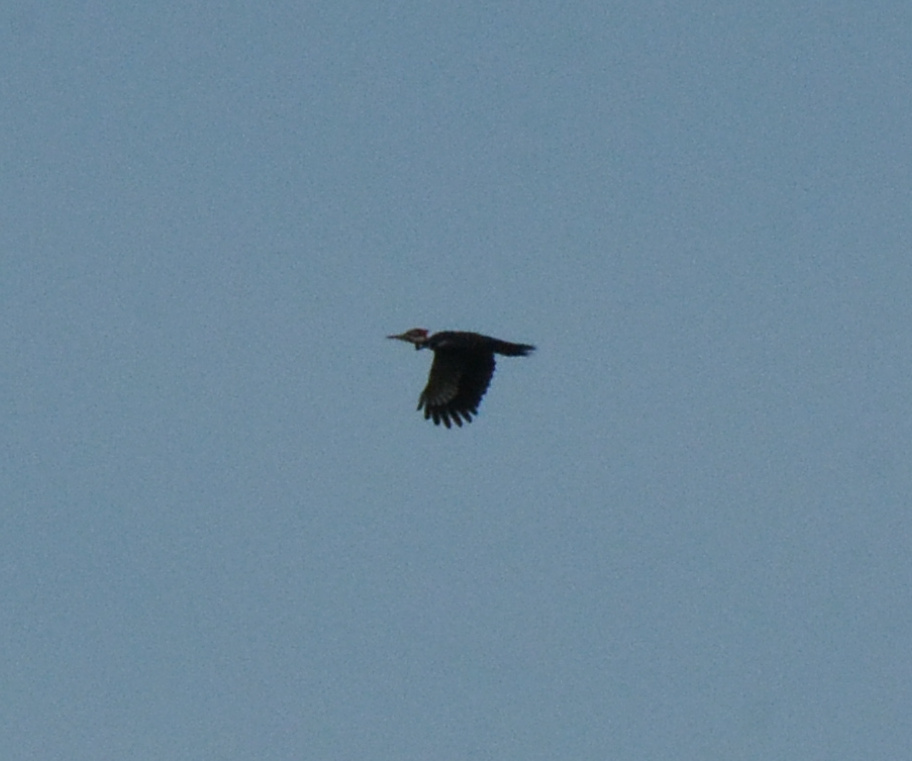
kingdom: Animalia
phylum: Chordata
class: Aves
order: Piciformes
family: Picidae
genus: Dryocopus
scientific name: Dryocopus pileatus
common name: Pileated woodpecker
